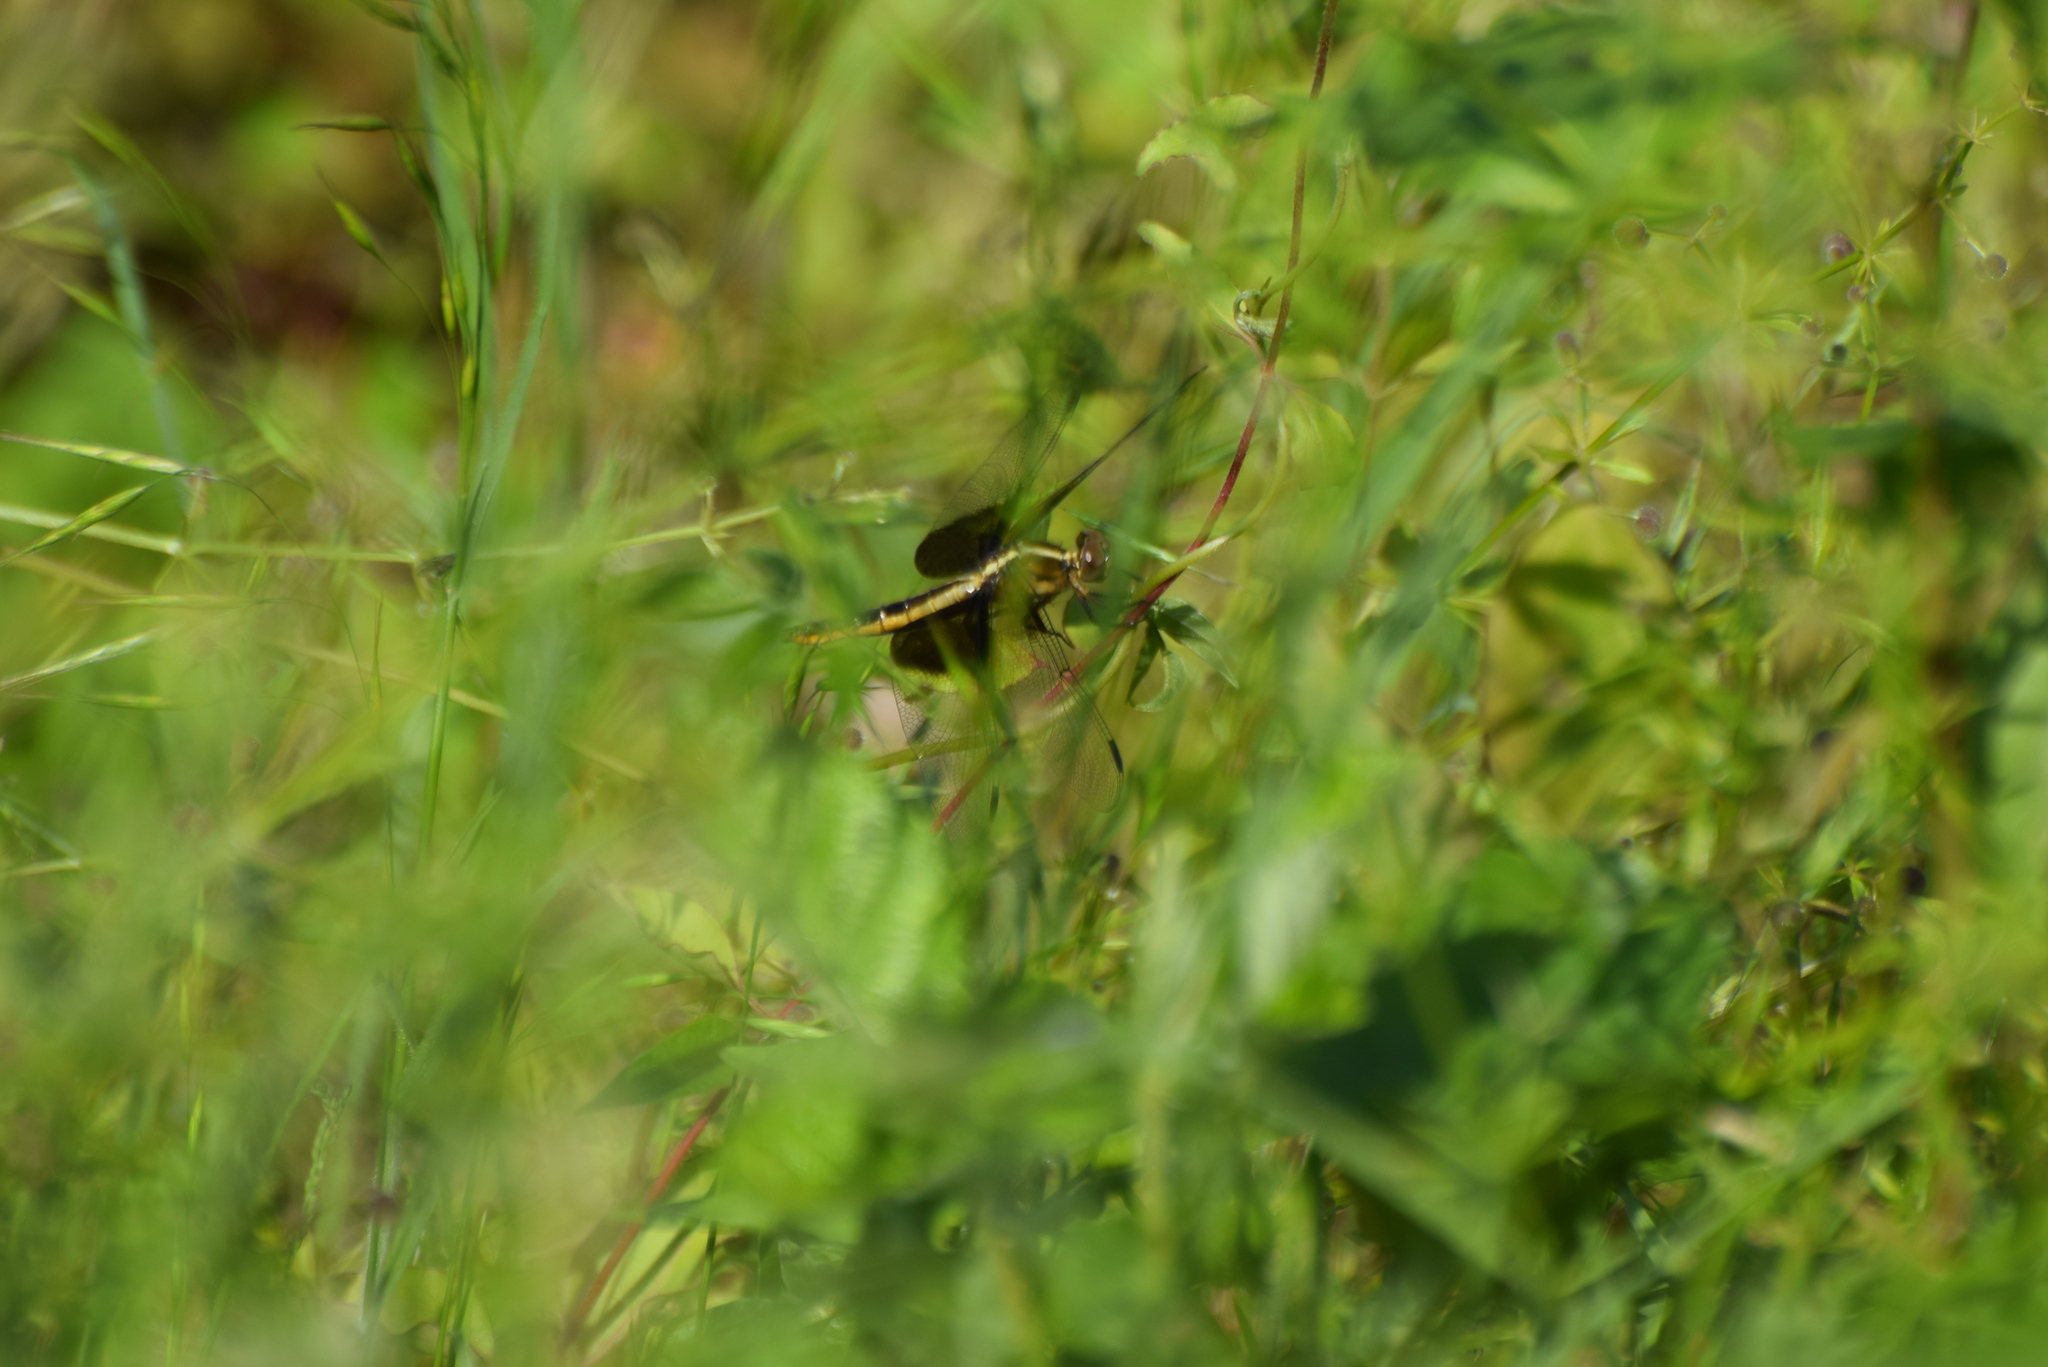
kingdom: Animalia
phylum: Arthropoda
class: Insecta
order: Odonata
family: Libellulidae
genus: Libellula
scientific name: Libellula luctuosa
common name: Widow skimmer
